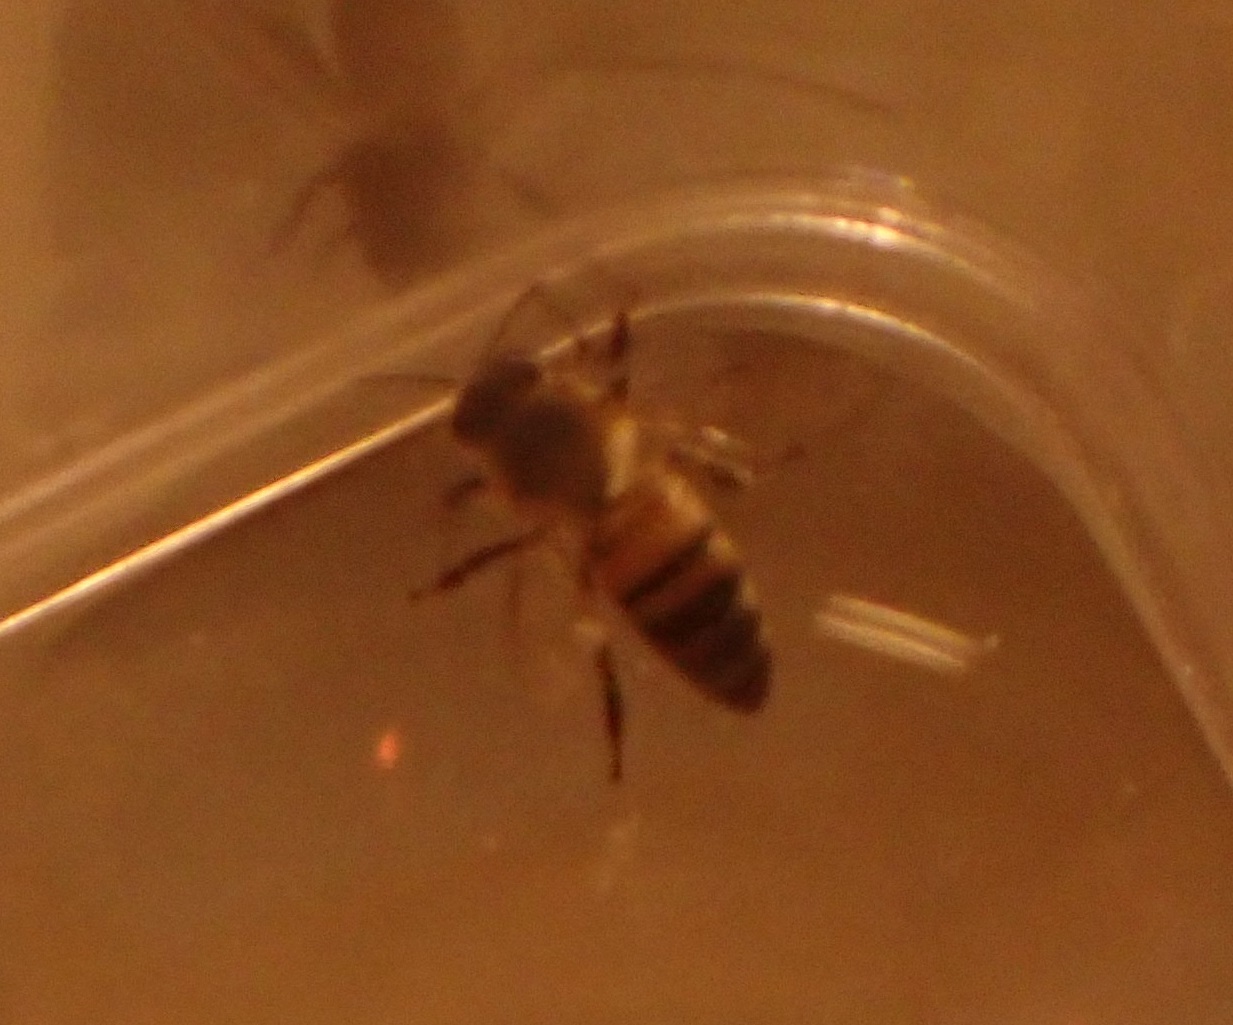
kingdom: Animalia
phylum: Arthropoda
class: Insecta
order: Hymenoptera
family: Apidae
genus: Apis
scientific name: Apis mellifera
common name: Honey bee
